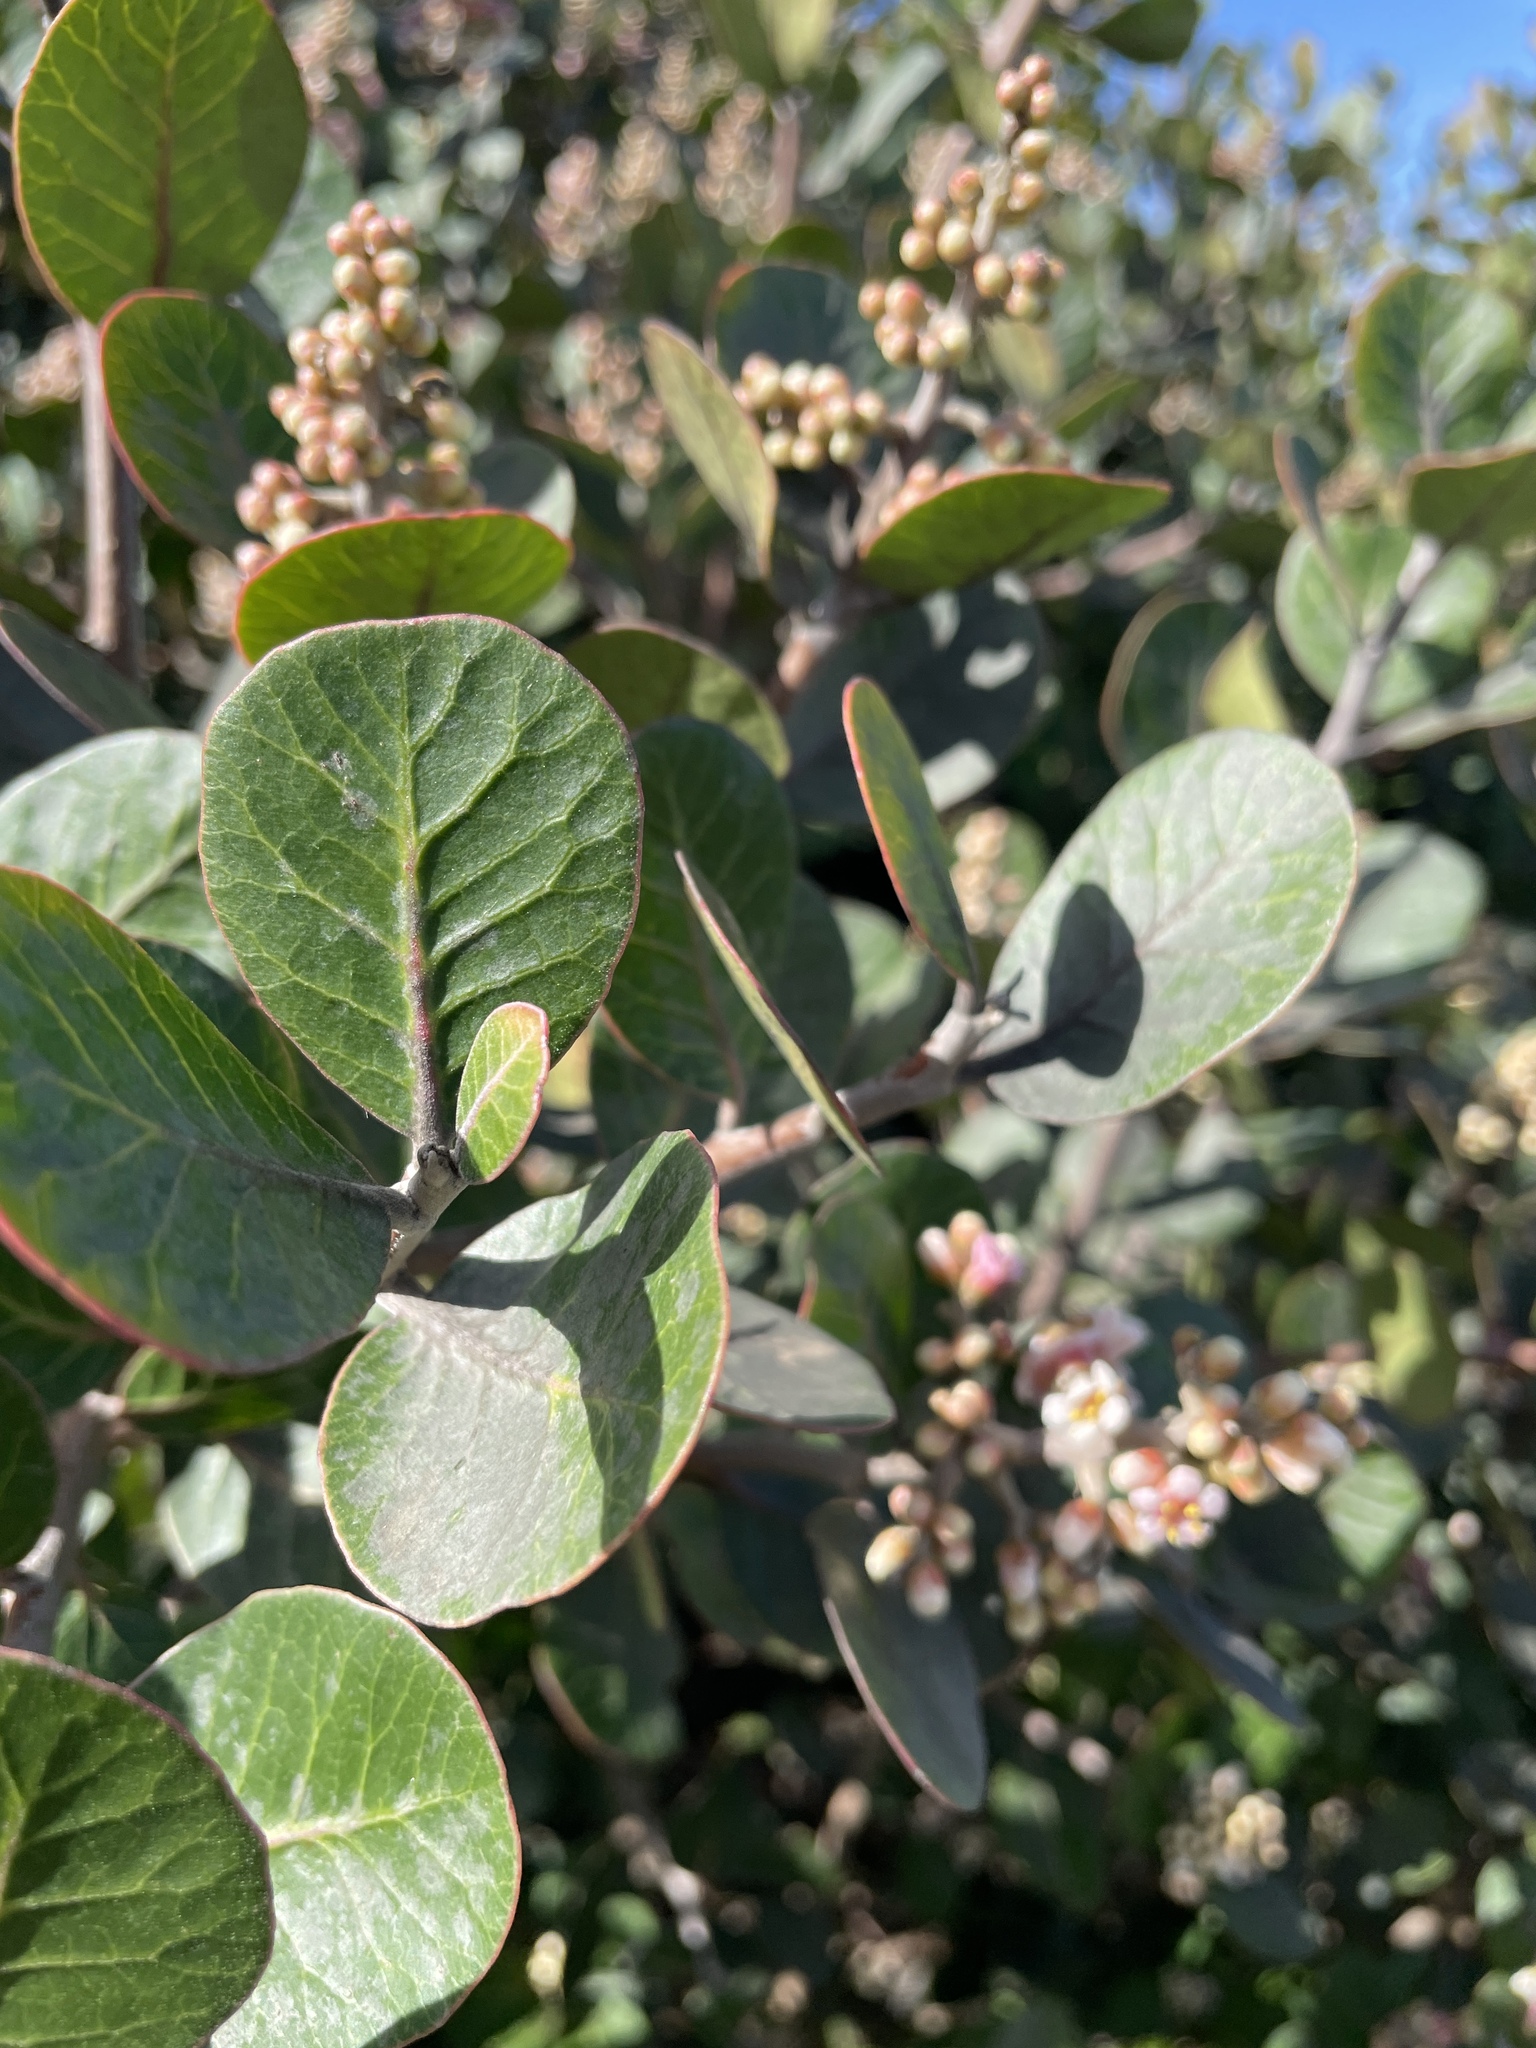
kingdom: Plantae
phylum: Tracheophyta
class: Magnoliopsida
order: Sapindales
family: Anacardiaceae
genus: Rhus
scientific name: Rhus integrifolia
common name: Lemonade sumac
